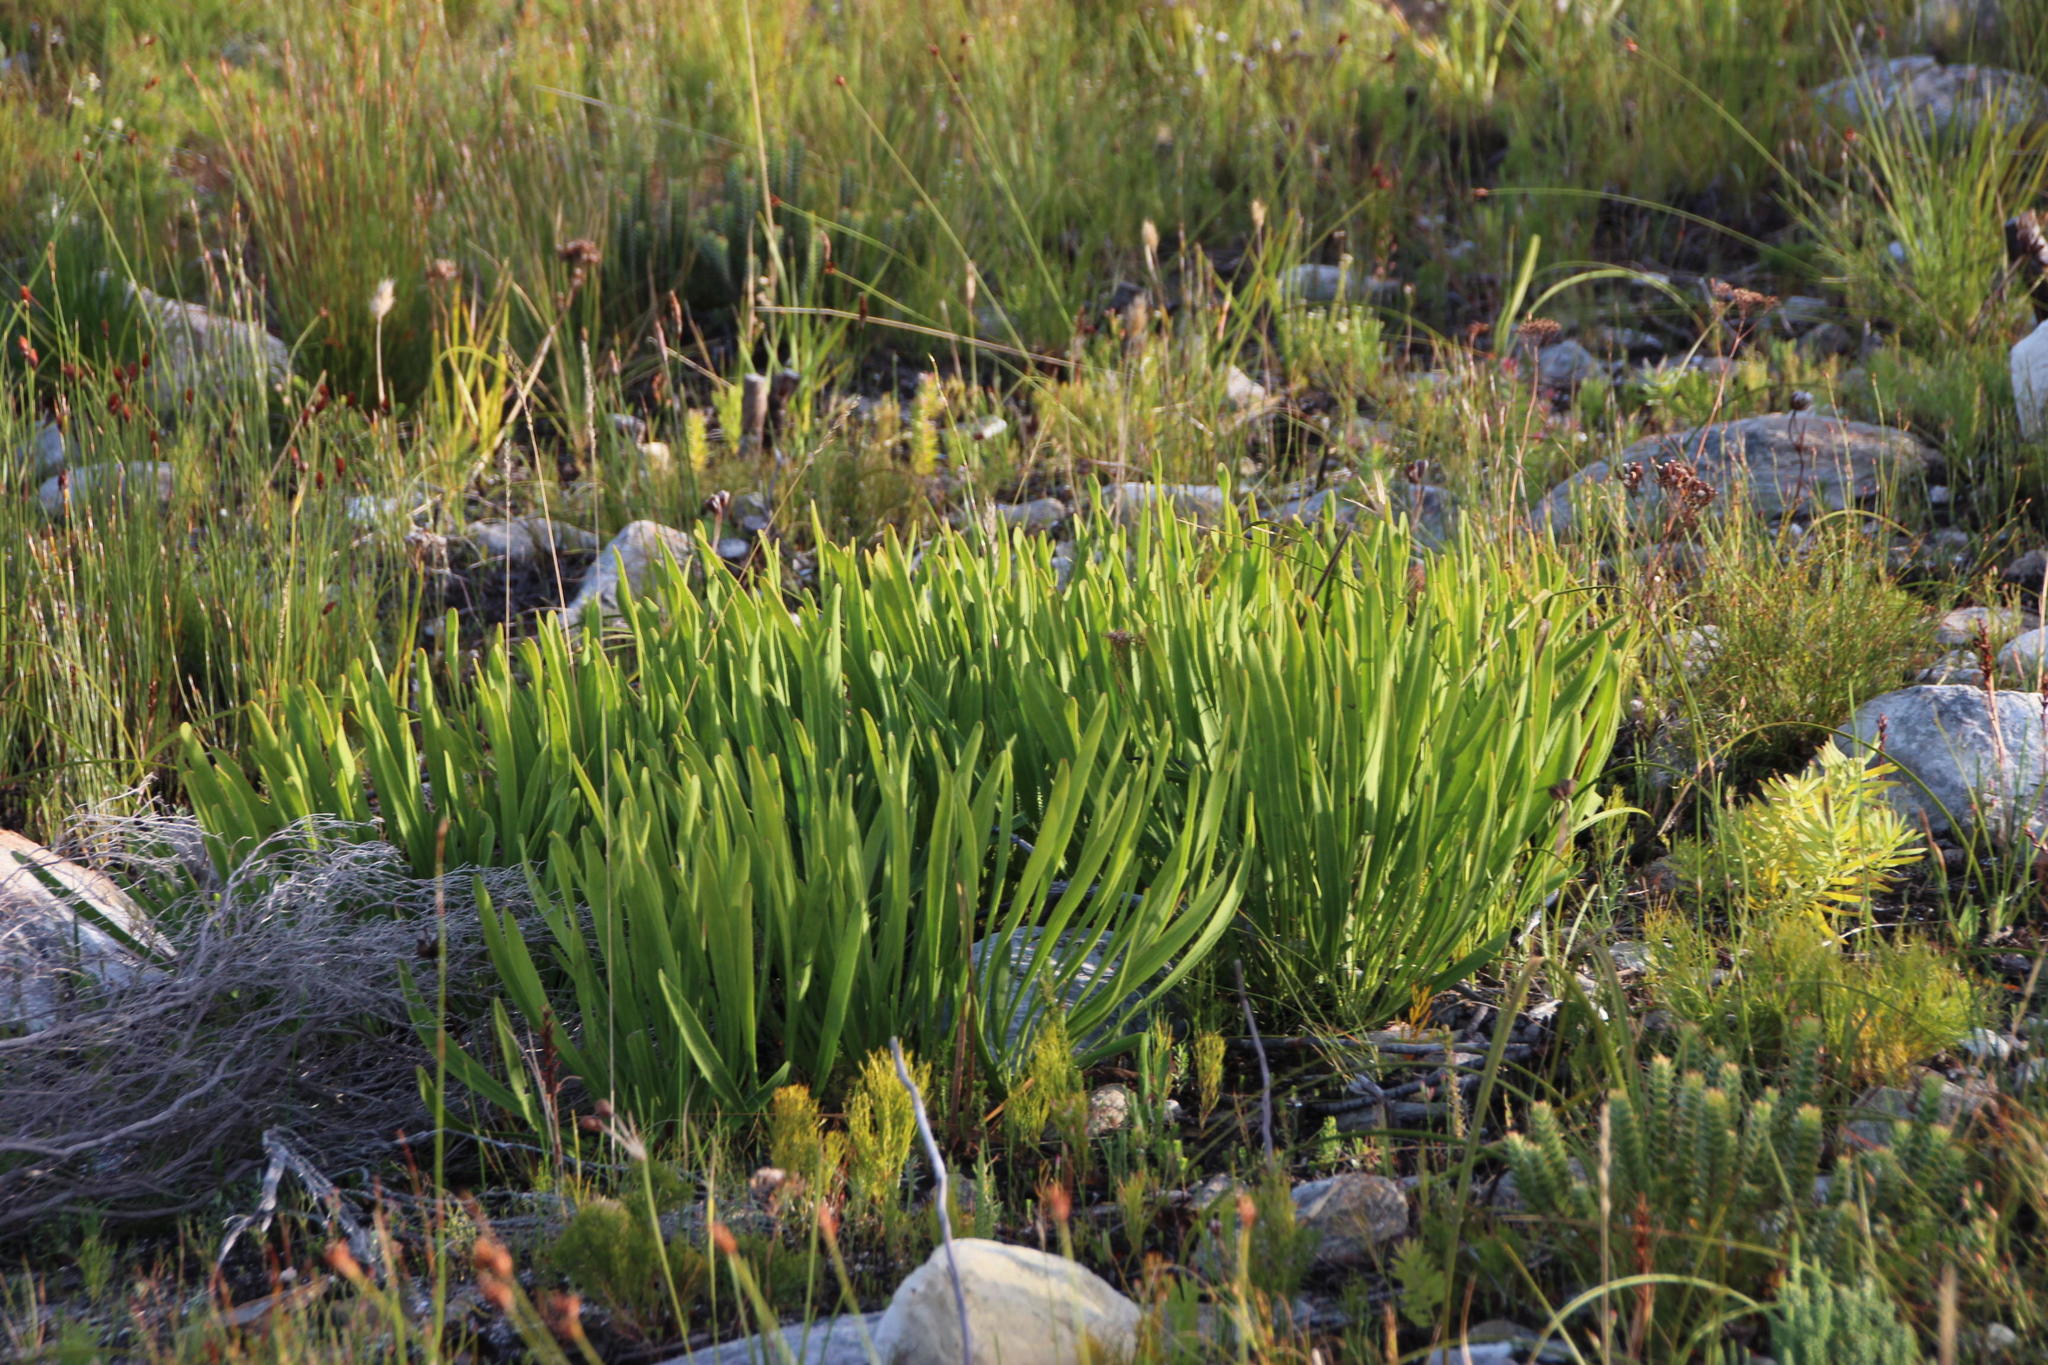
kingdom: Plantae
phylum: Tracheophyta
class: Magnoliopsida
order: Proteales
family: Proteaceae
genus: Protea
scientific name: Protea scabra
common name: Sandpaper-leaf sugarbush
